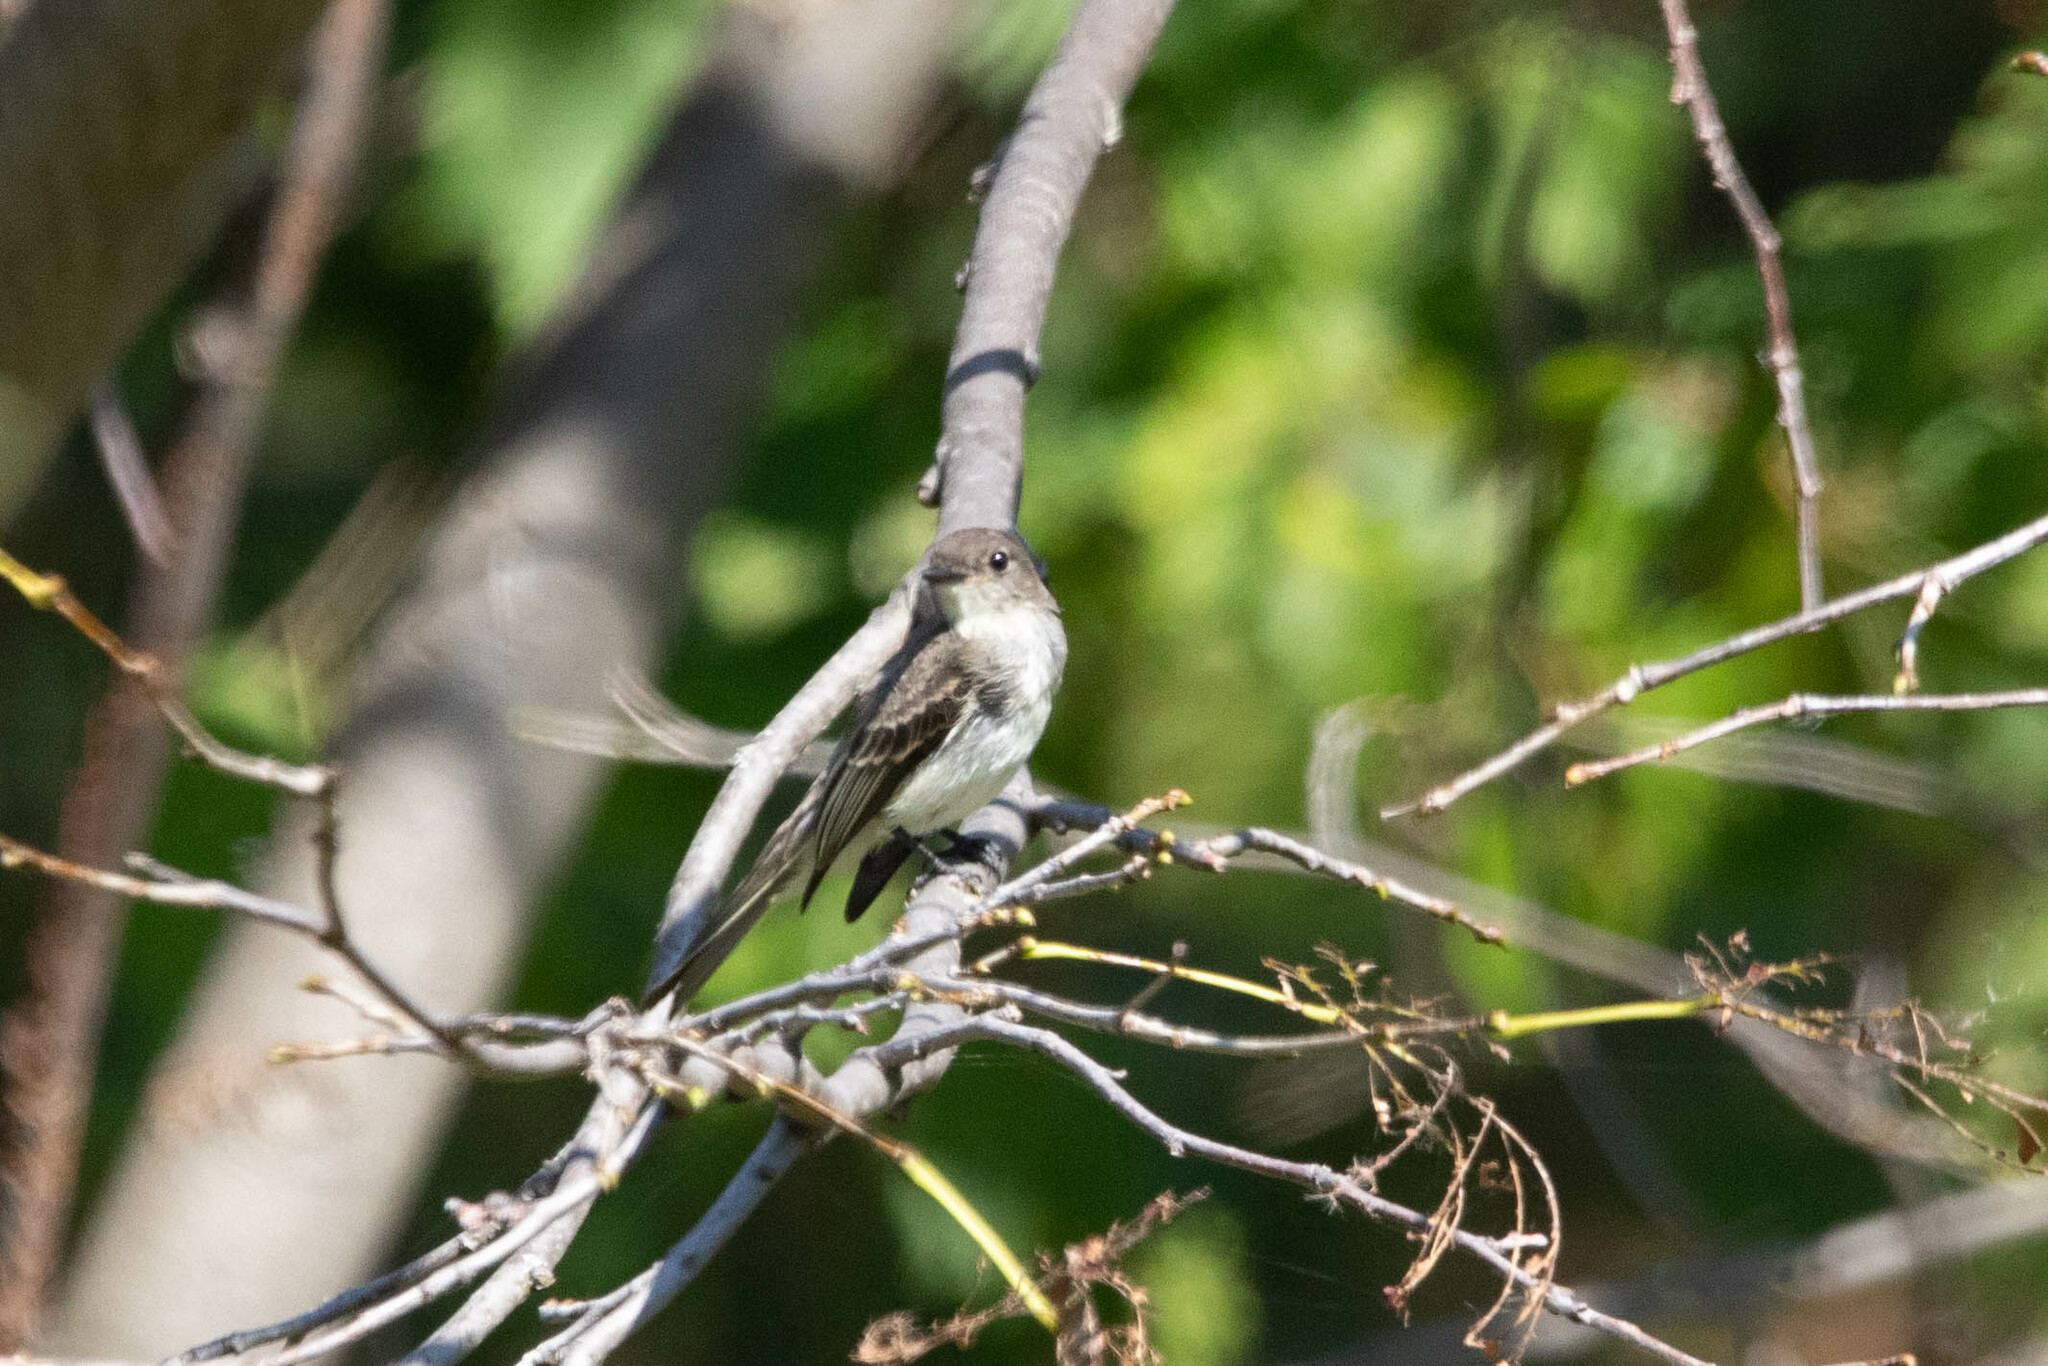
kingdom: Animalia
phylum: Chordata
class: Aves
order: Passeriformes
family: Tyrannidae
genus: Sayornis
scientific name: Sayornis phoebe
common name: Eastern phoebe
